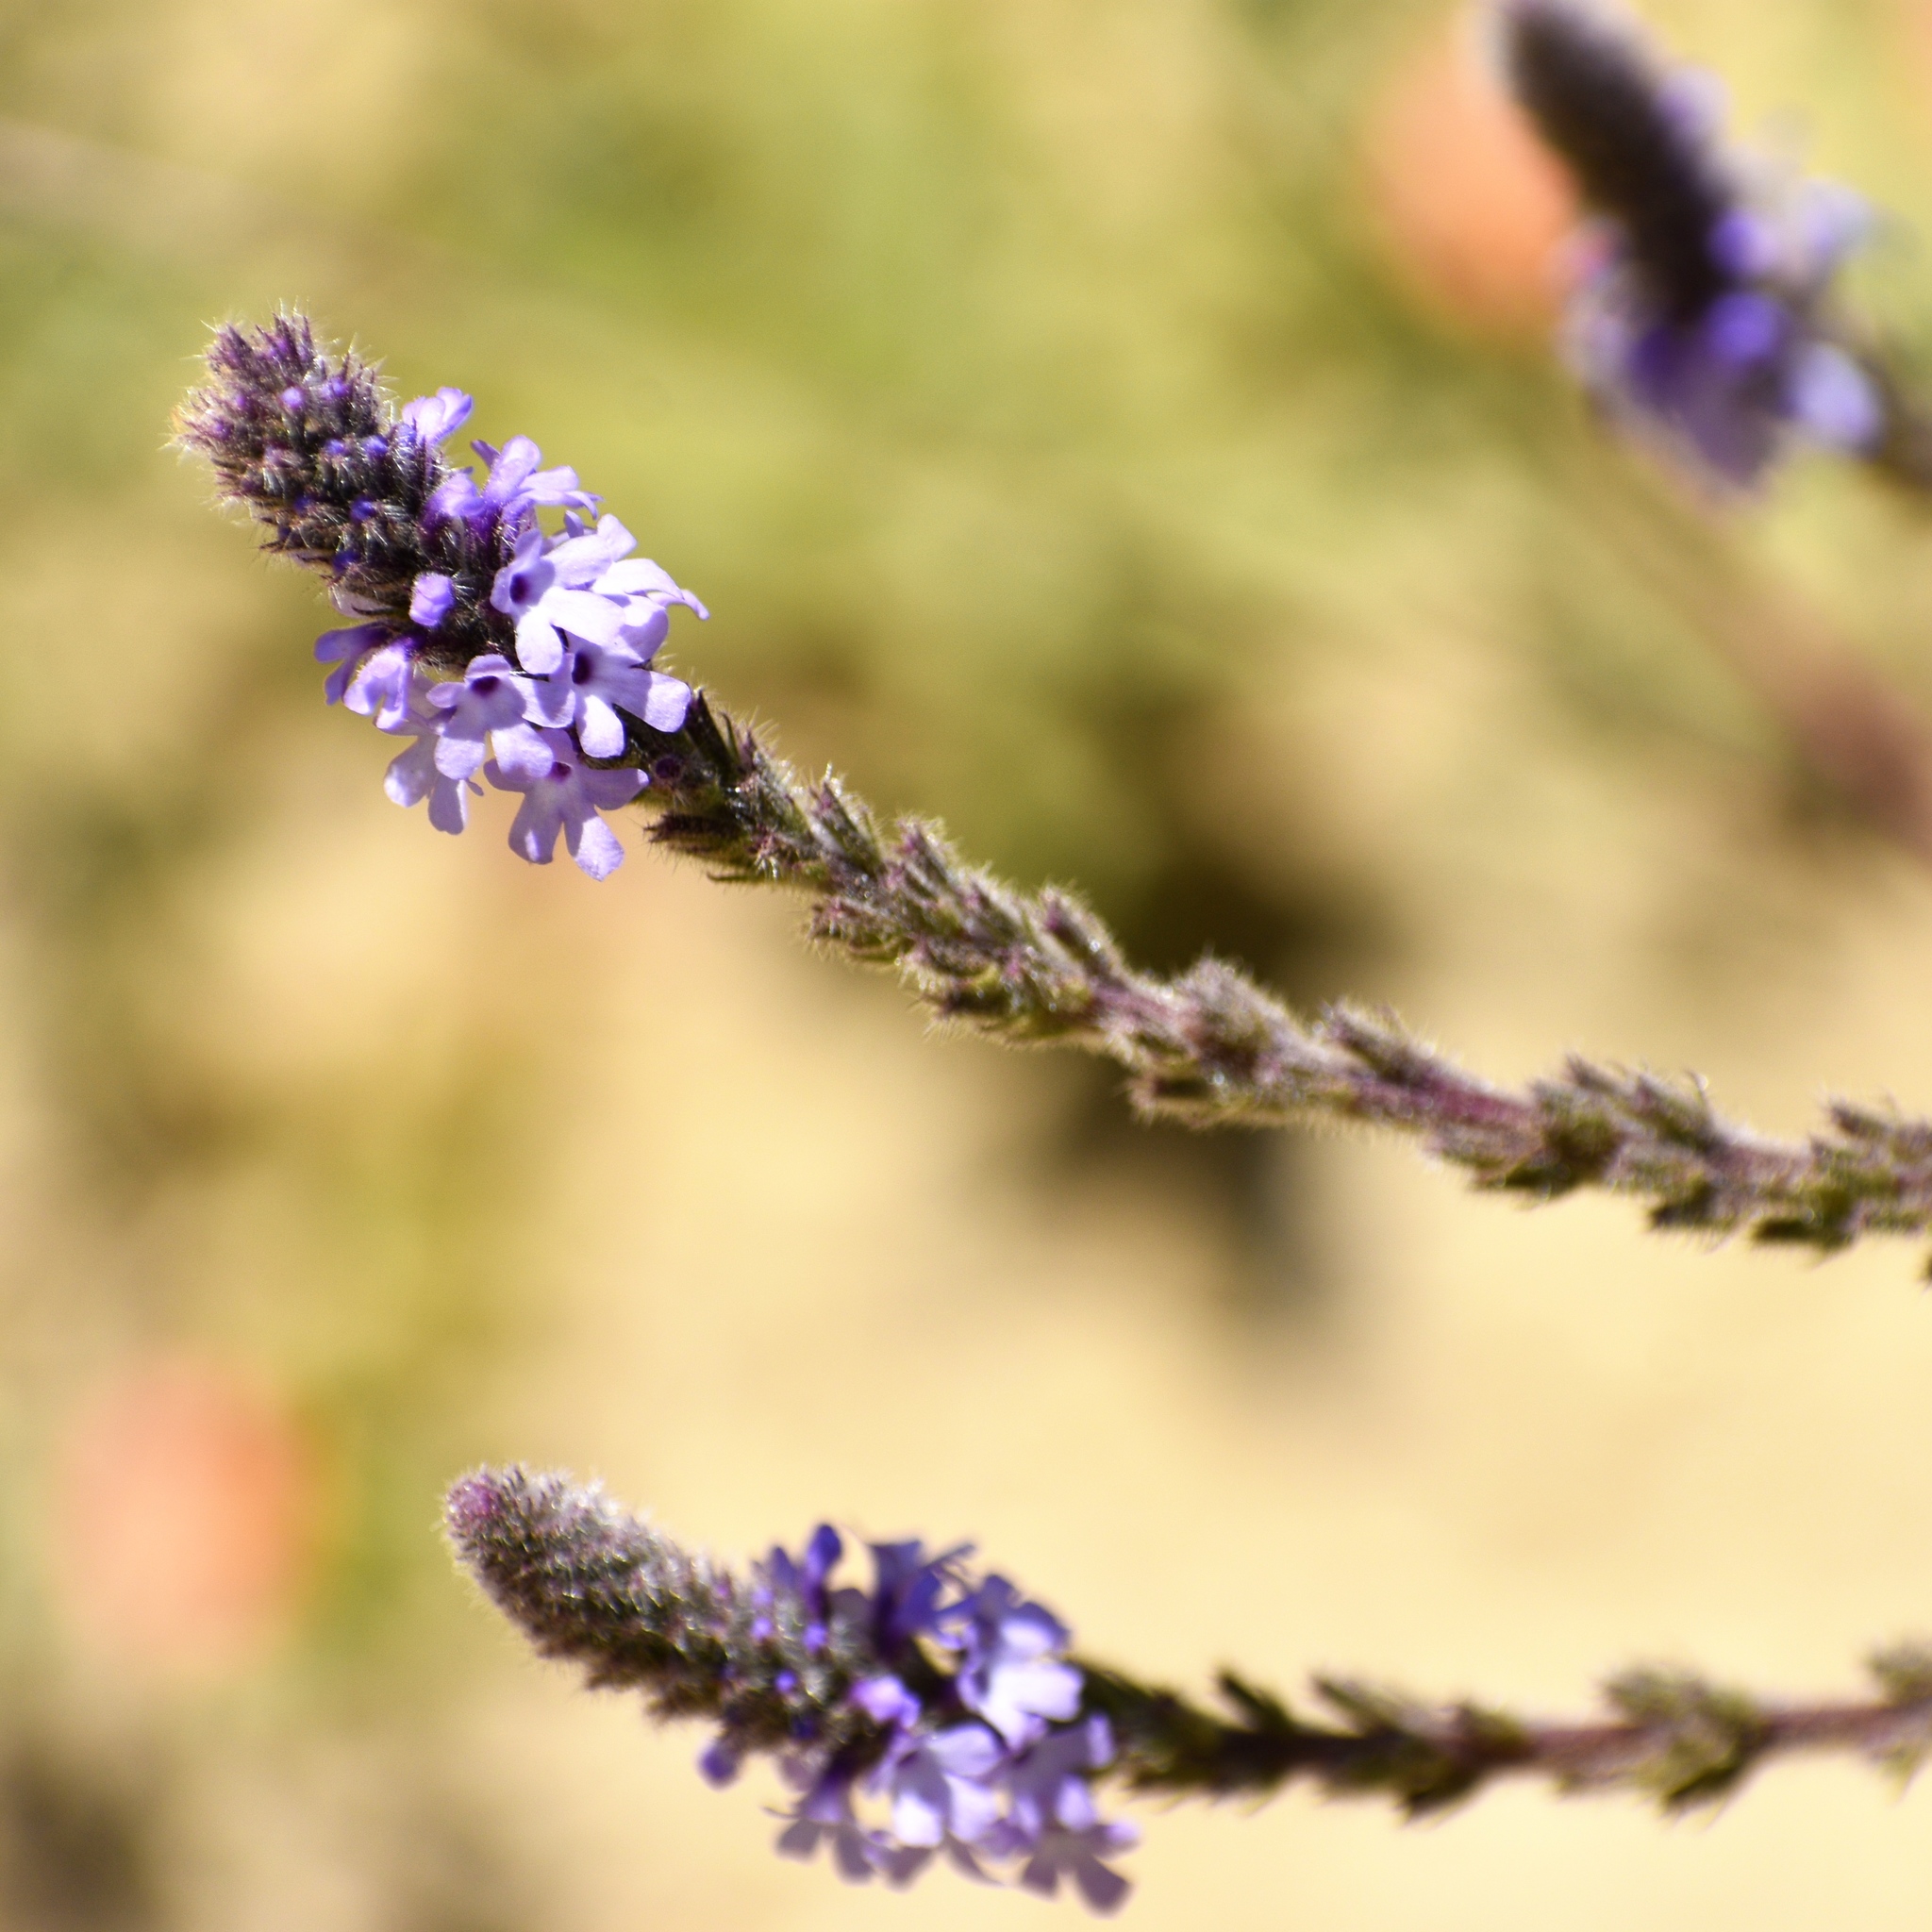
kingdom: Plantae
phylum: Tracheophyta
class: Magnoliopsida
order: Lamiales
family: Verbenaceae
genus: Verbena
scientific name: Verbena lasiostachys
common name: Vervain
